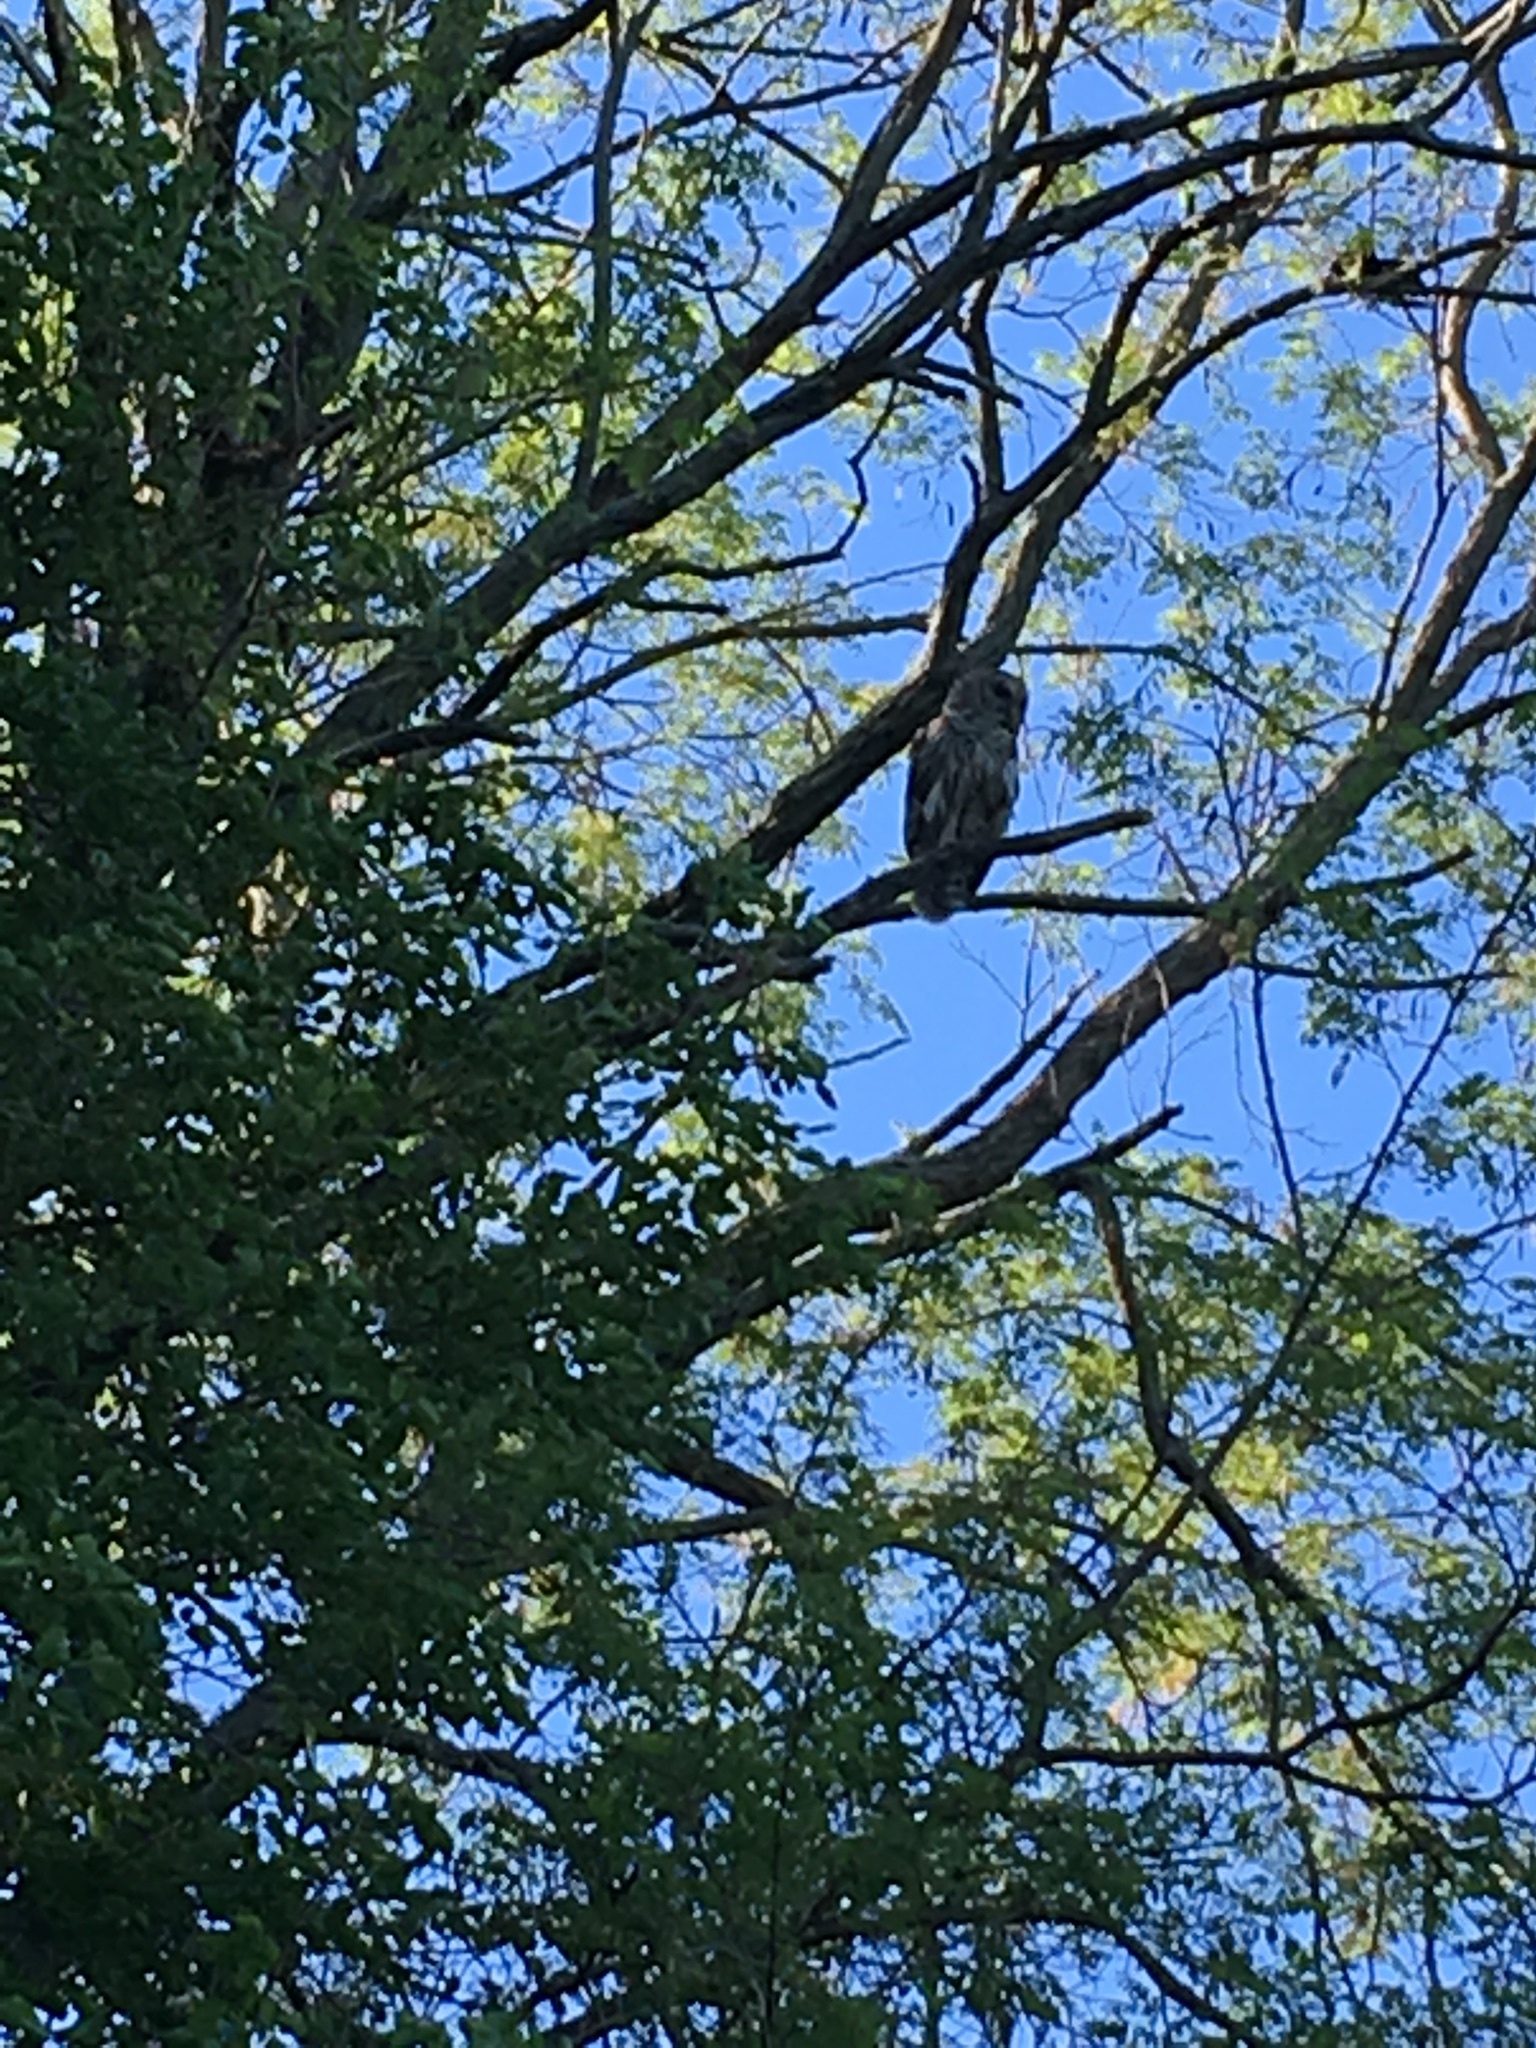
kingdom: Animalia
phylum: Chordata
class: Aves
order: Strigiformes
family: Strigidae
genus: Strix
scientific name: Strix varia
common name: Barred owl
